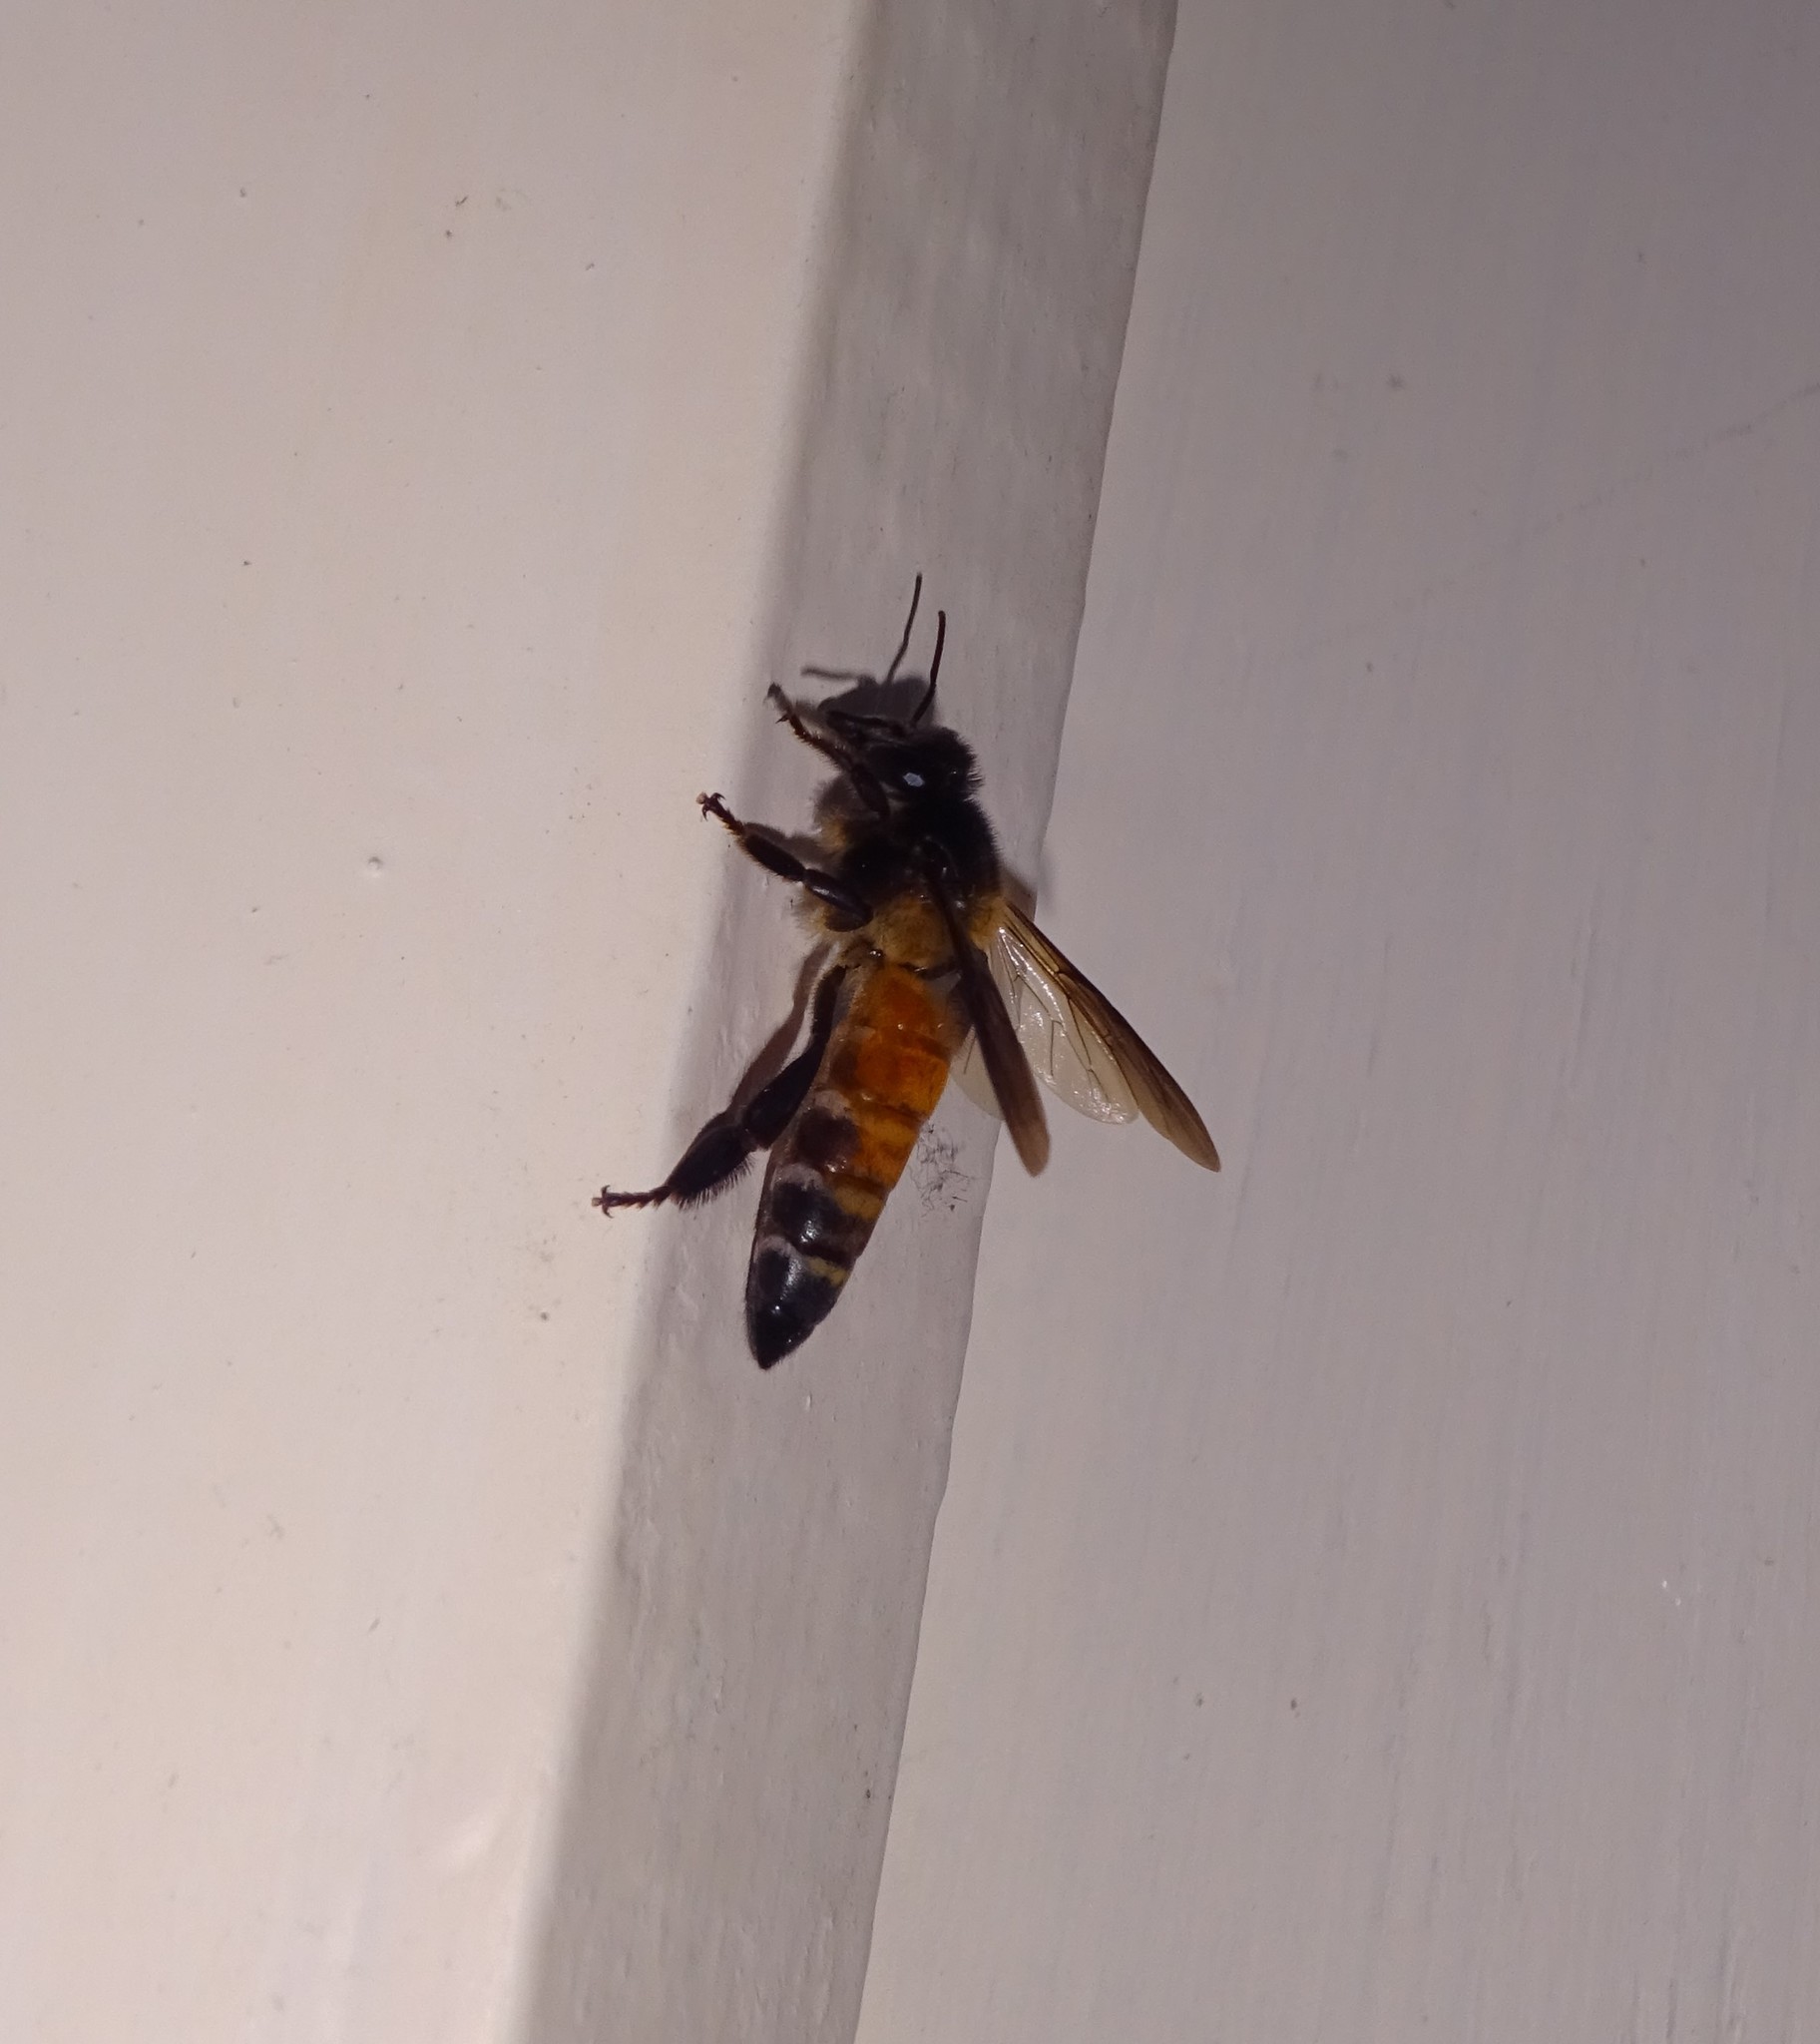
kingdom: Animalia
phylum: Arthropoda
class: Insecta
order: Hymenoptera
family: Apidae
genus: Apis
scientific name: Apis dorsata
